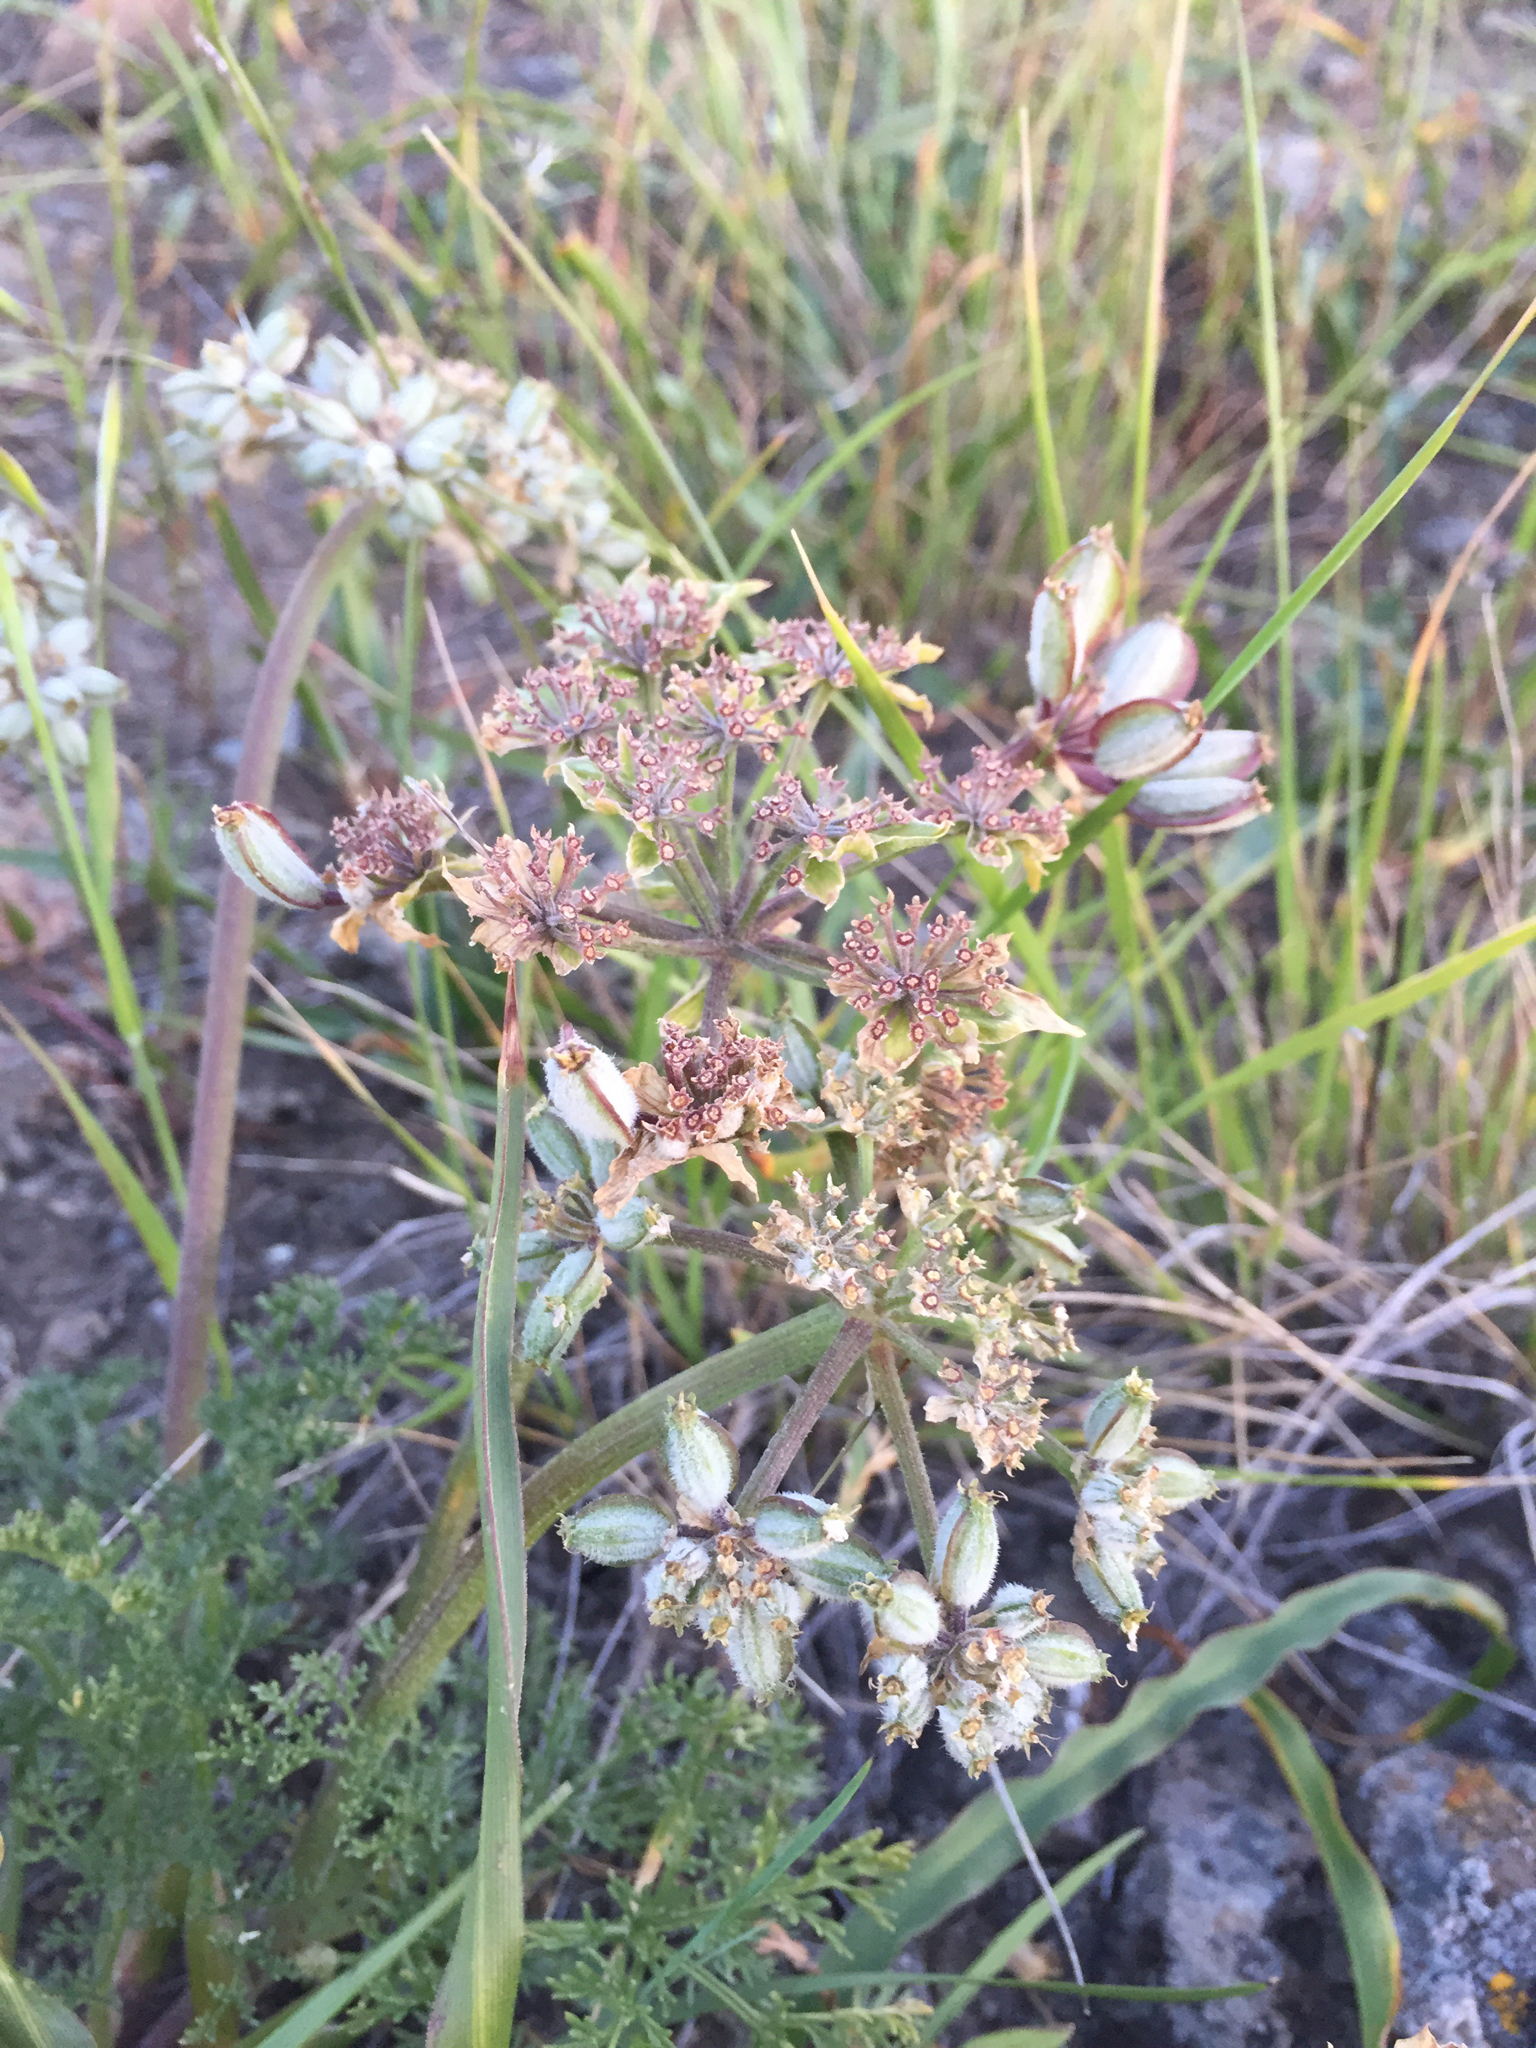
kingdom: Plantae
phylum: Tracheophyta
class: Magnoliopsida
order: Apiales
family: Apiaceae
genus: Lomatium
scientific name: Lomatium dasycarpum
